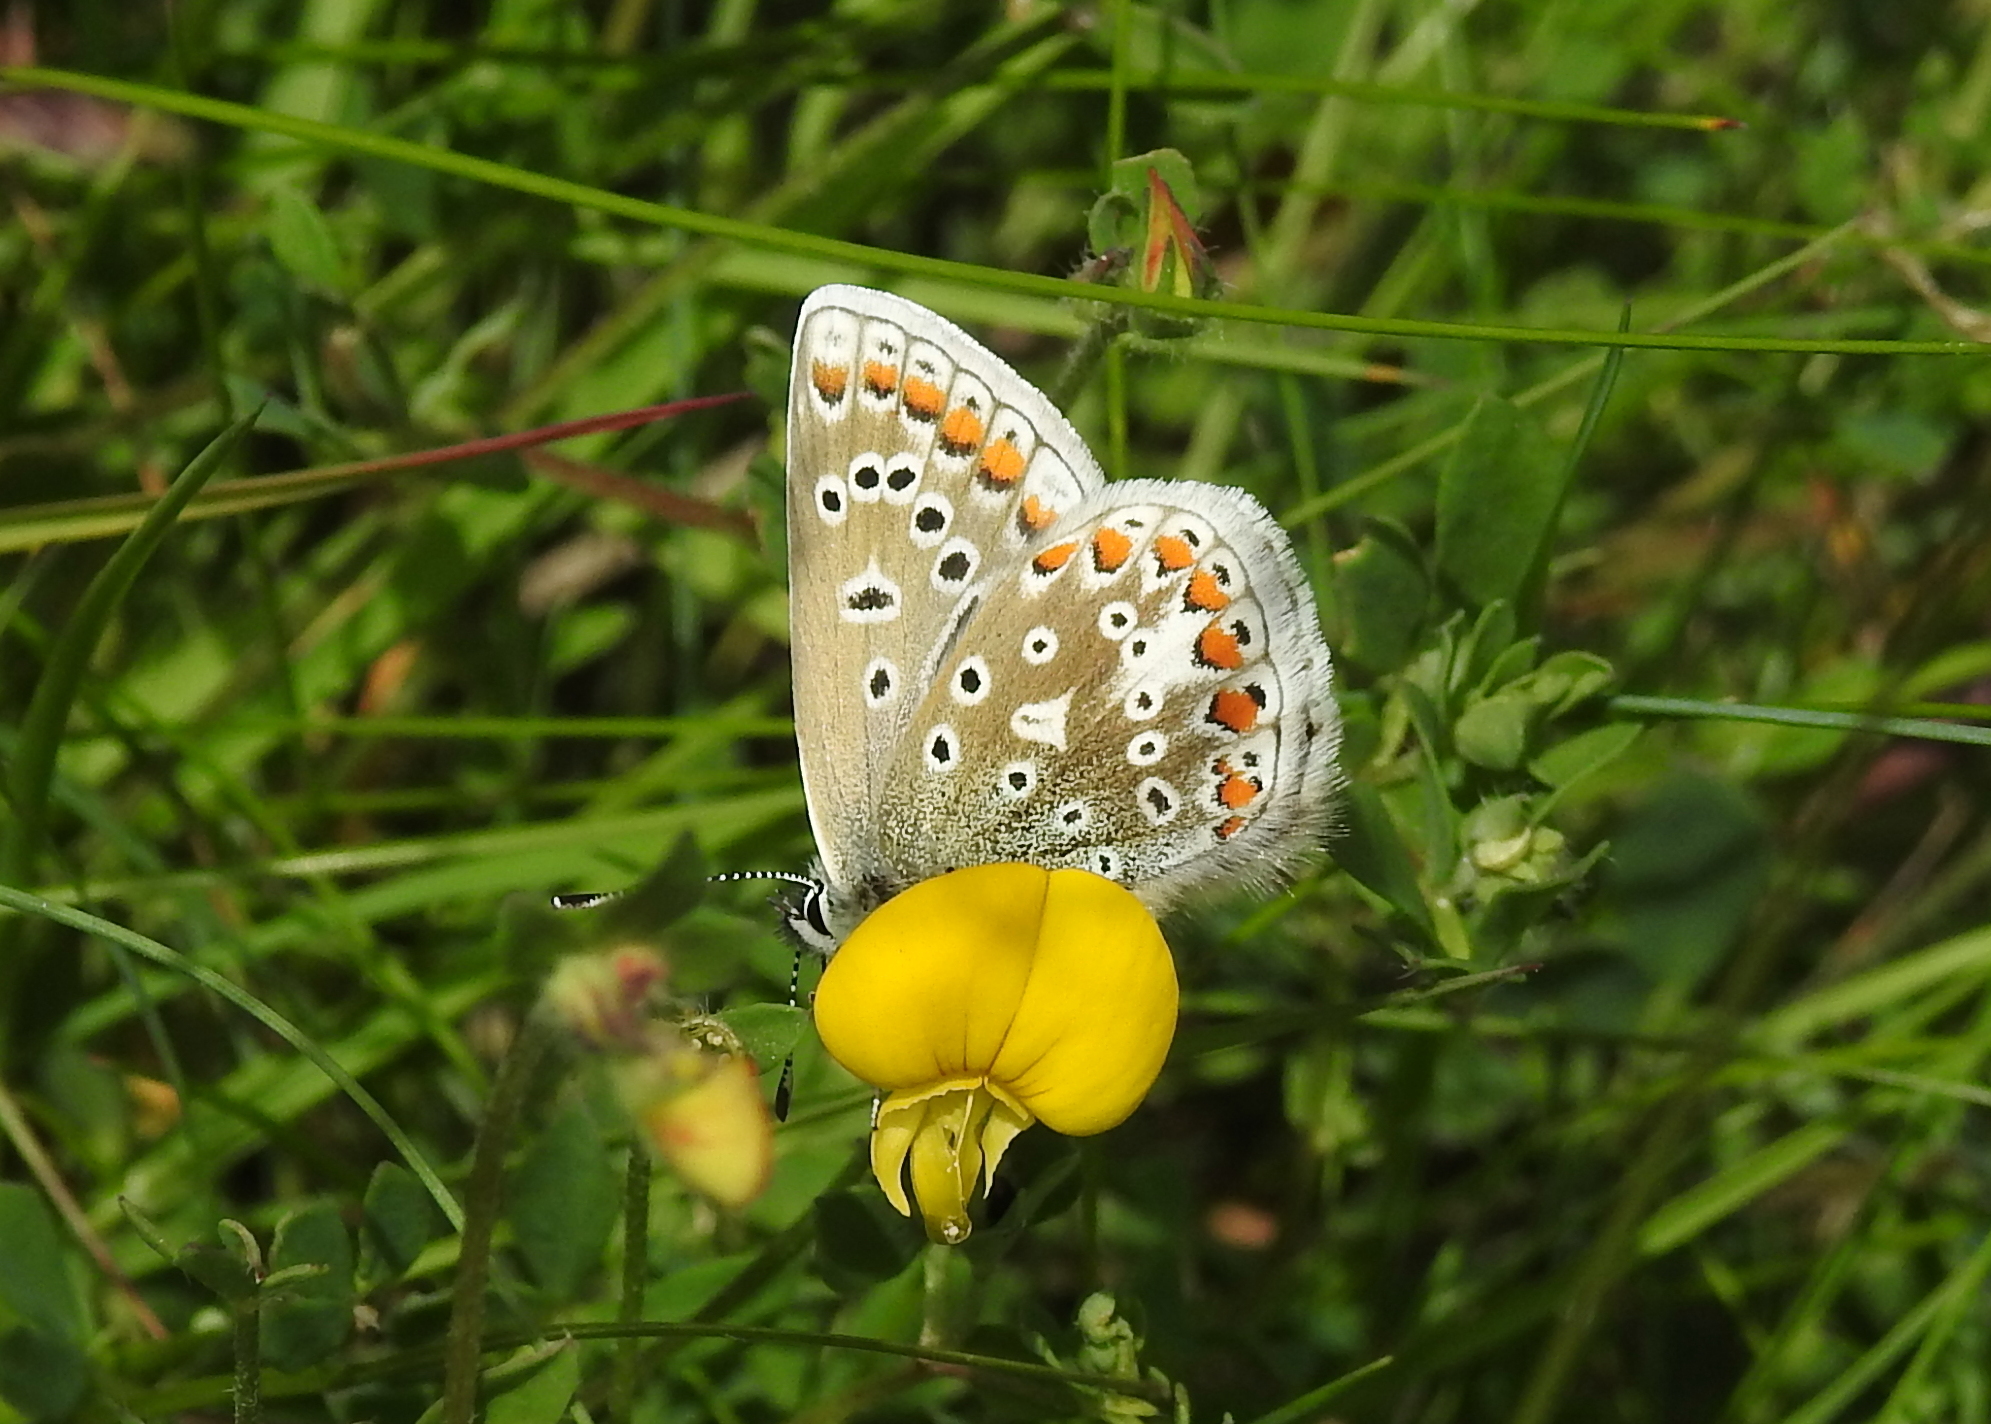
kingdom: Animalia
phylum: Arthropoda
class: Insecta
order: Lepidoptera
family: Lycaenidae
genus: Polyommatus
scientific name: Polyommatus icarus
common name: Common blue
